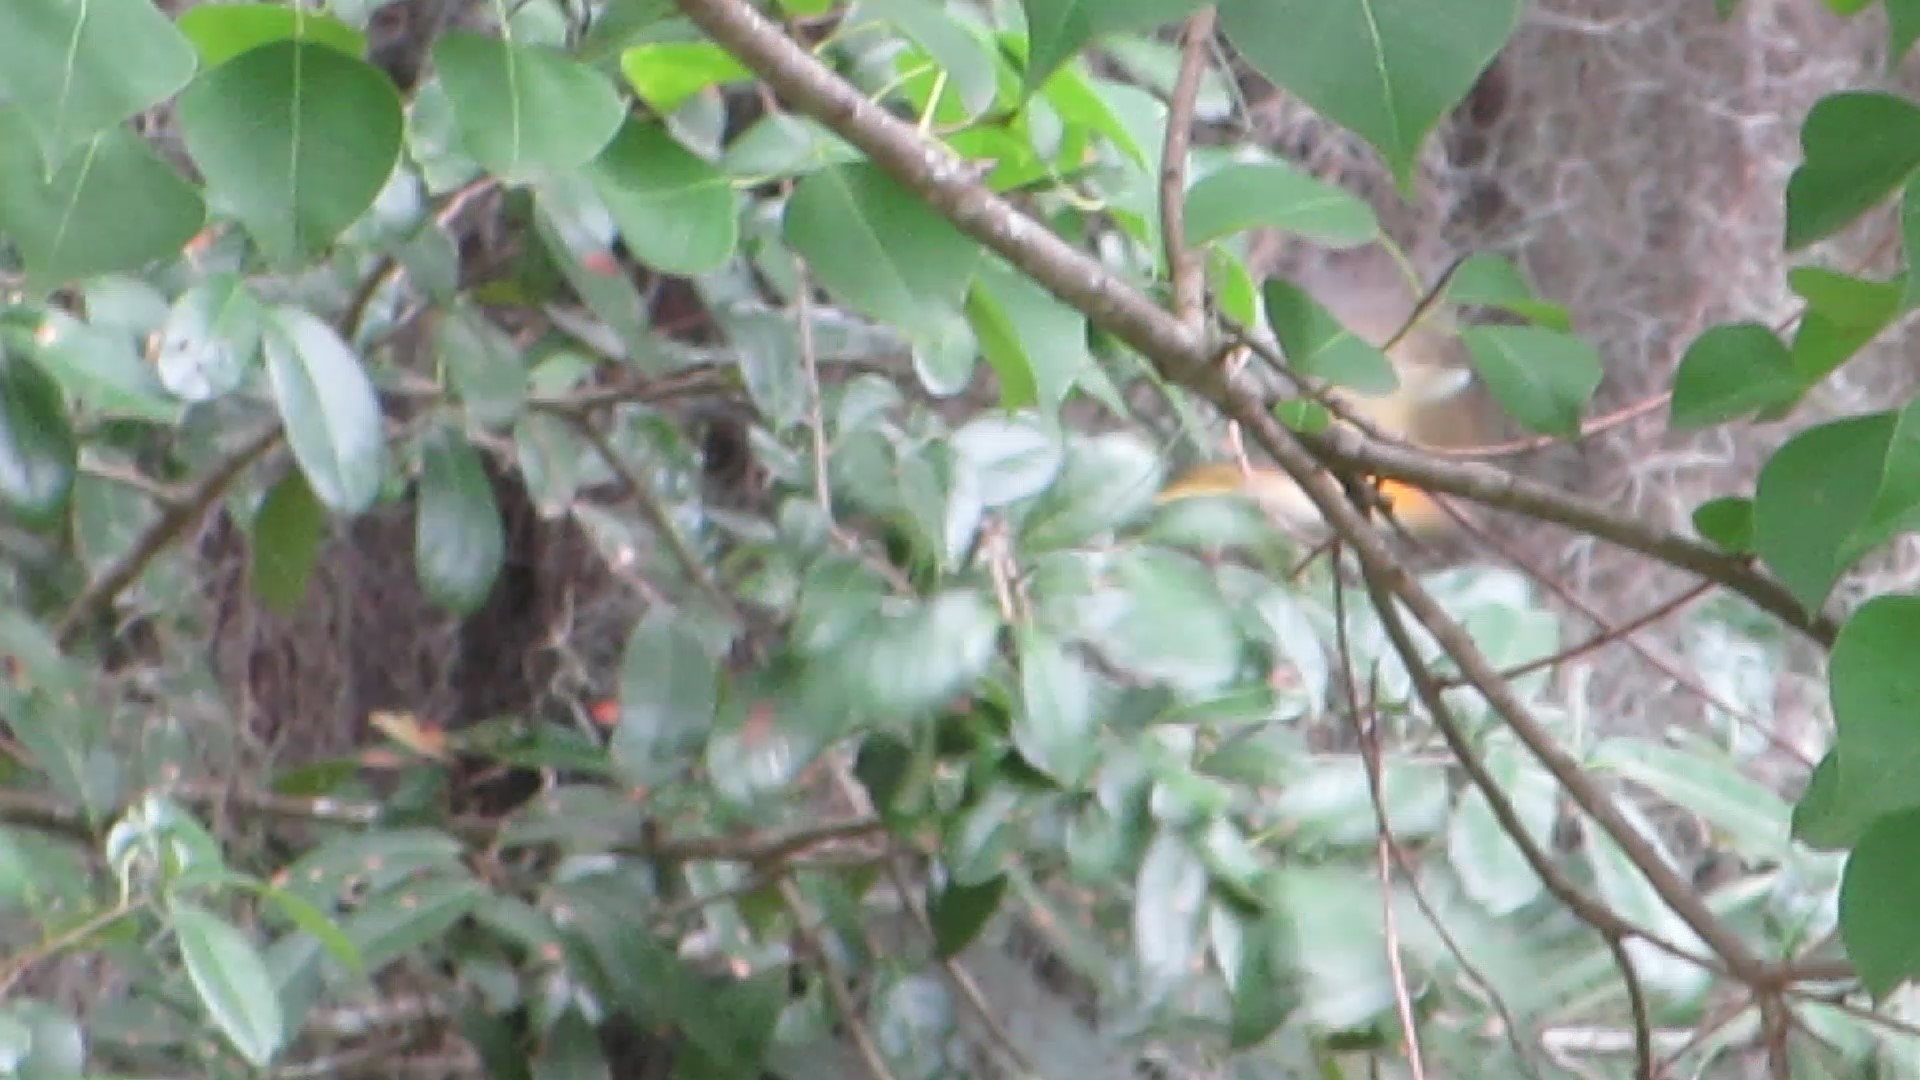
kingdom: Animalia
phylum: Chordata
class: Aves
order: Passeriformes
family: Parulidae
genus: Setophaga
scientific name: Setophaga ruticilla
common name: American redstart
